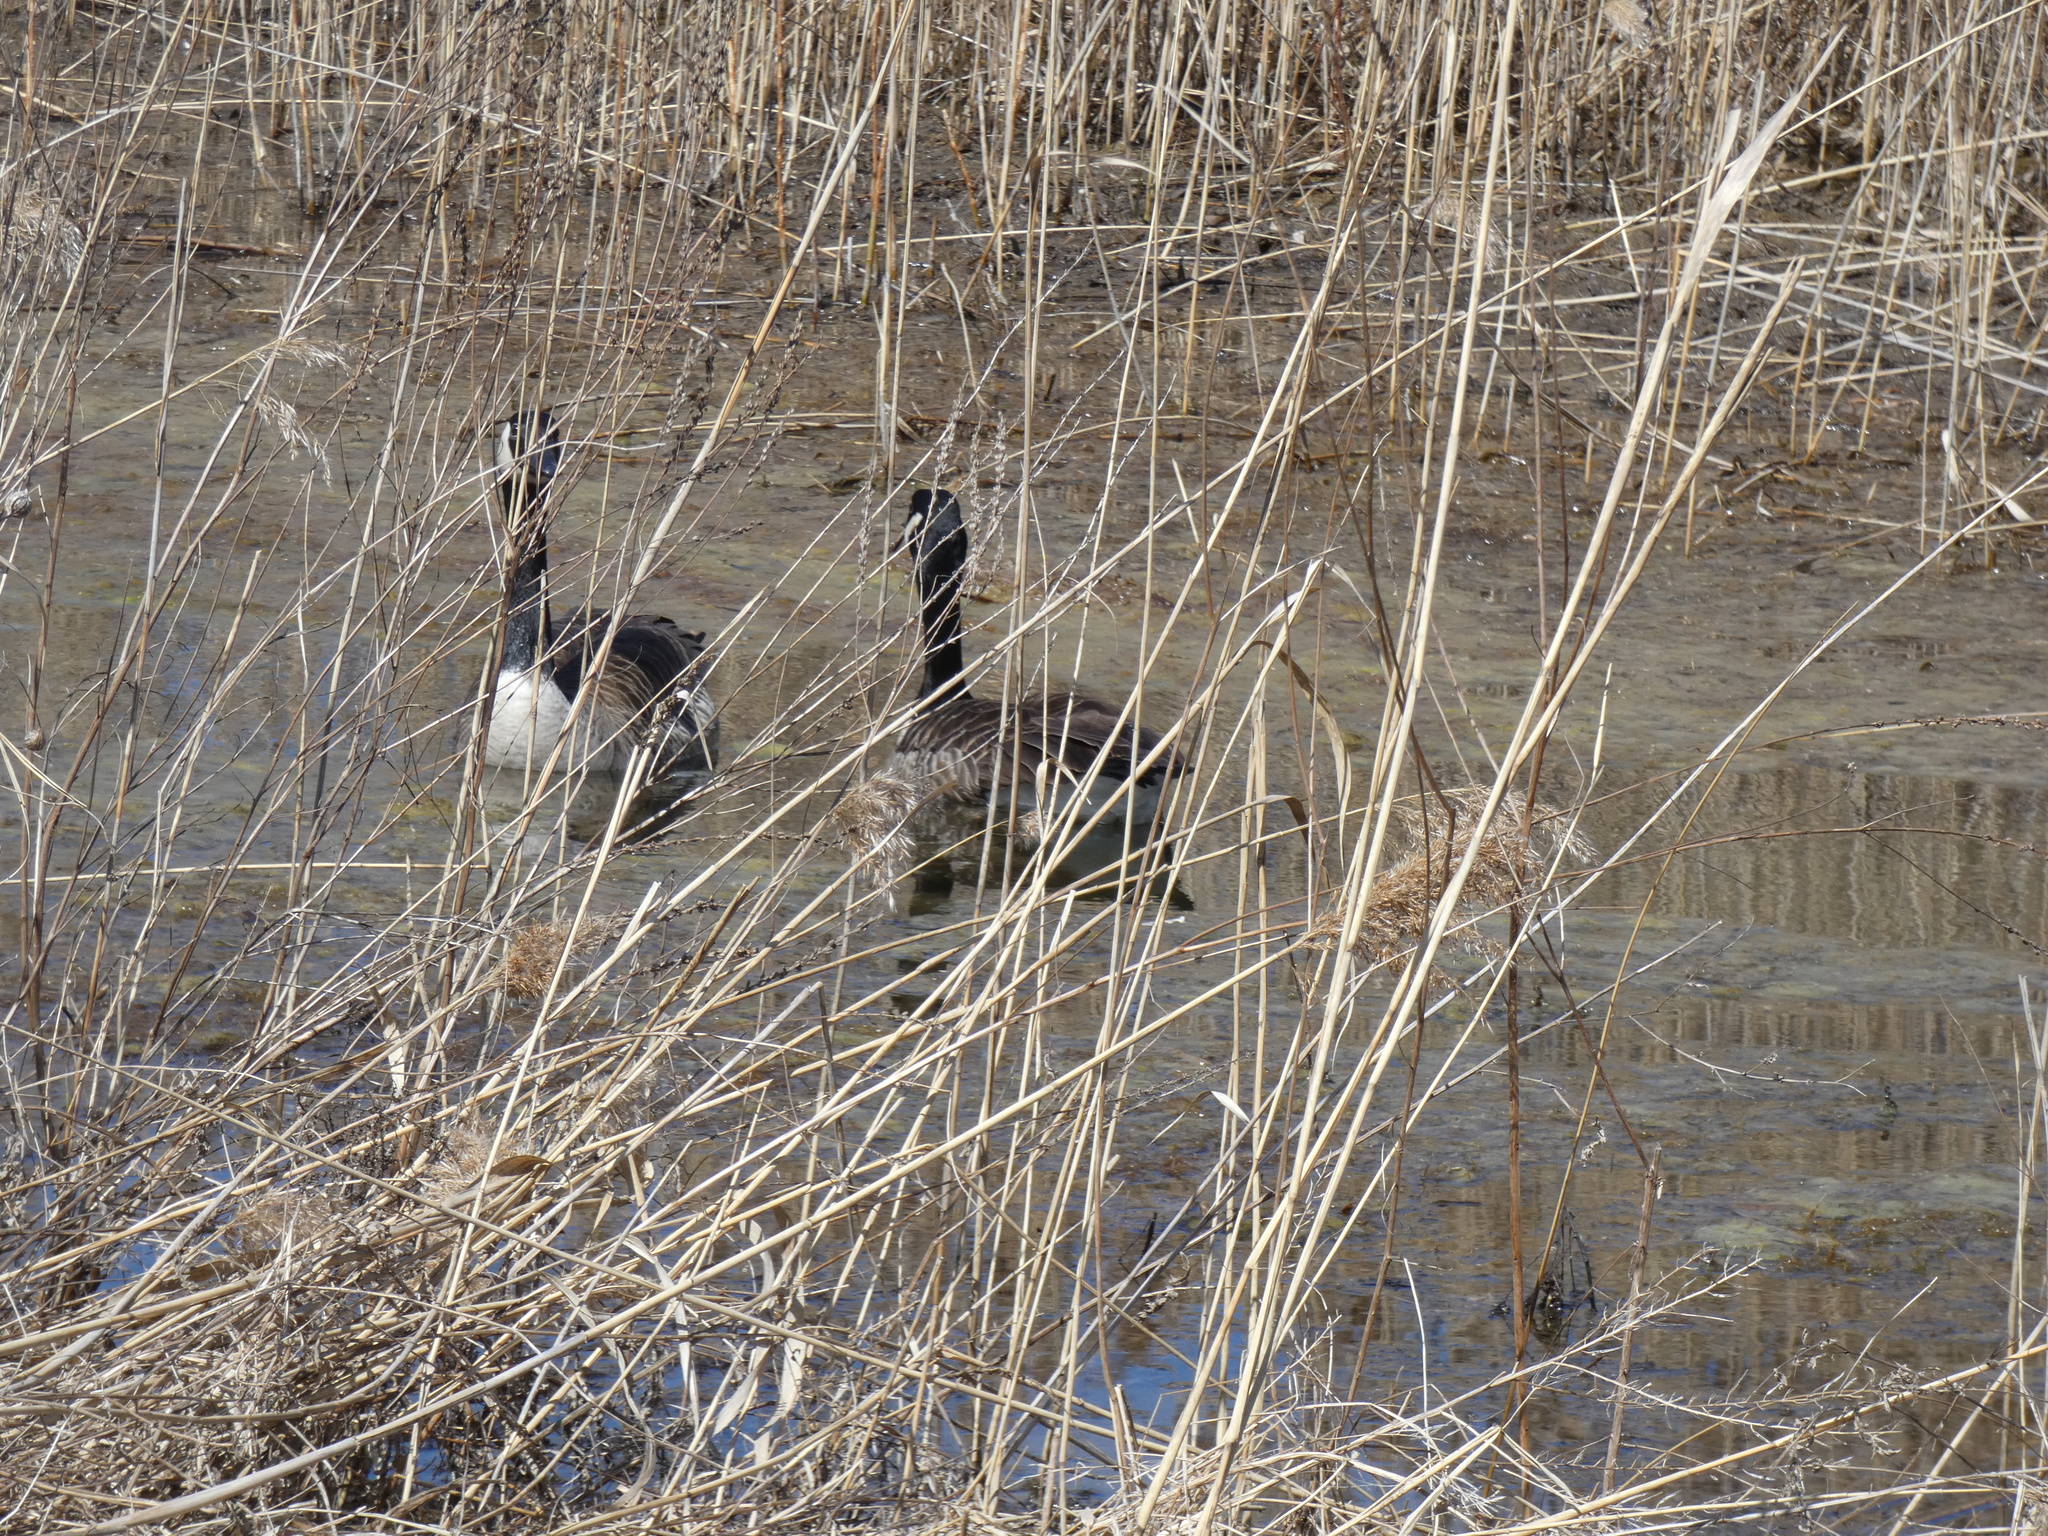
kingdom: Animalia
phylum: Chordata
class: Aves
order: Anseriformes
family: Anatidae
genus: Branta
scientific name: Branta canadensis
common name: Canada goose
